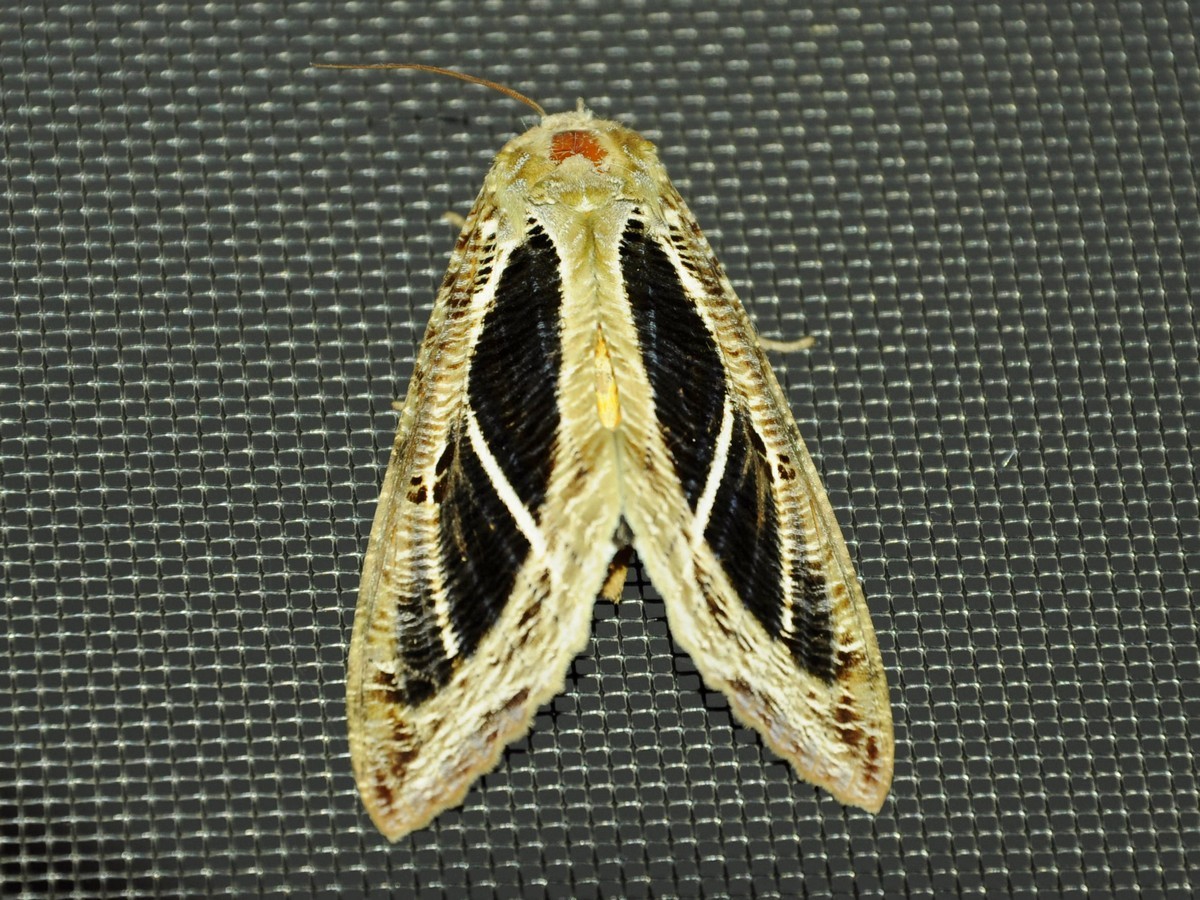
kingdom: Animalia
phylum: Arthropoda
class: Insecta
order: Lepidoptera
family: Erebidae
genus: Eudocima
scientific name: Eudocima materna
